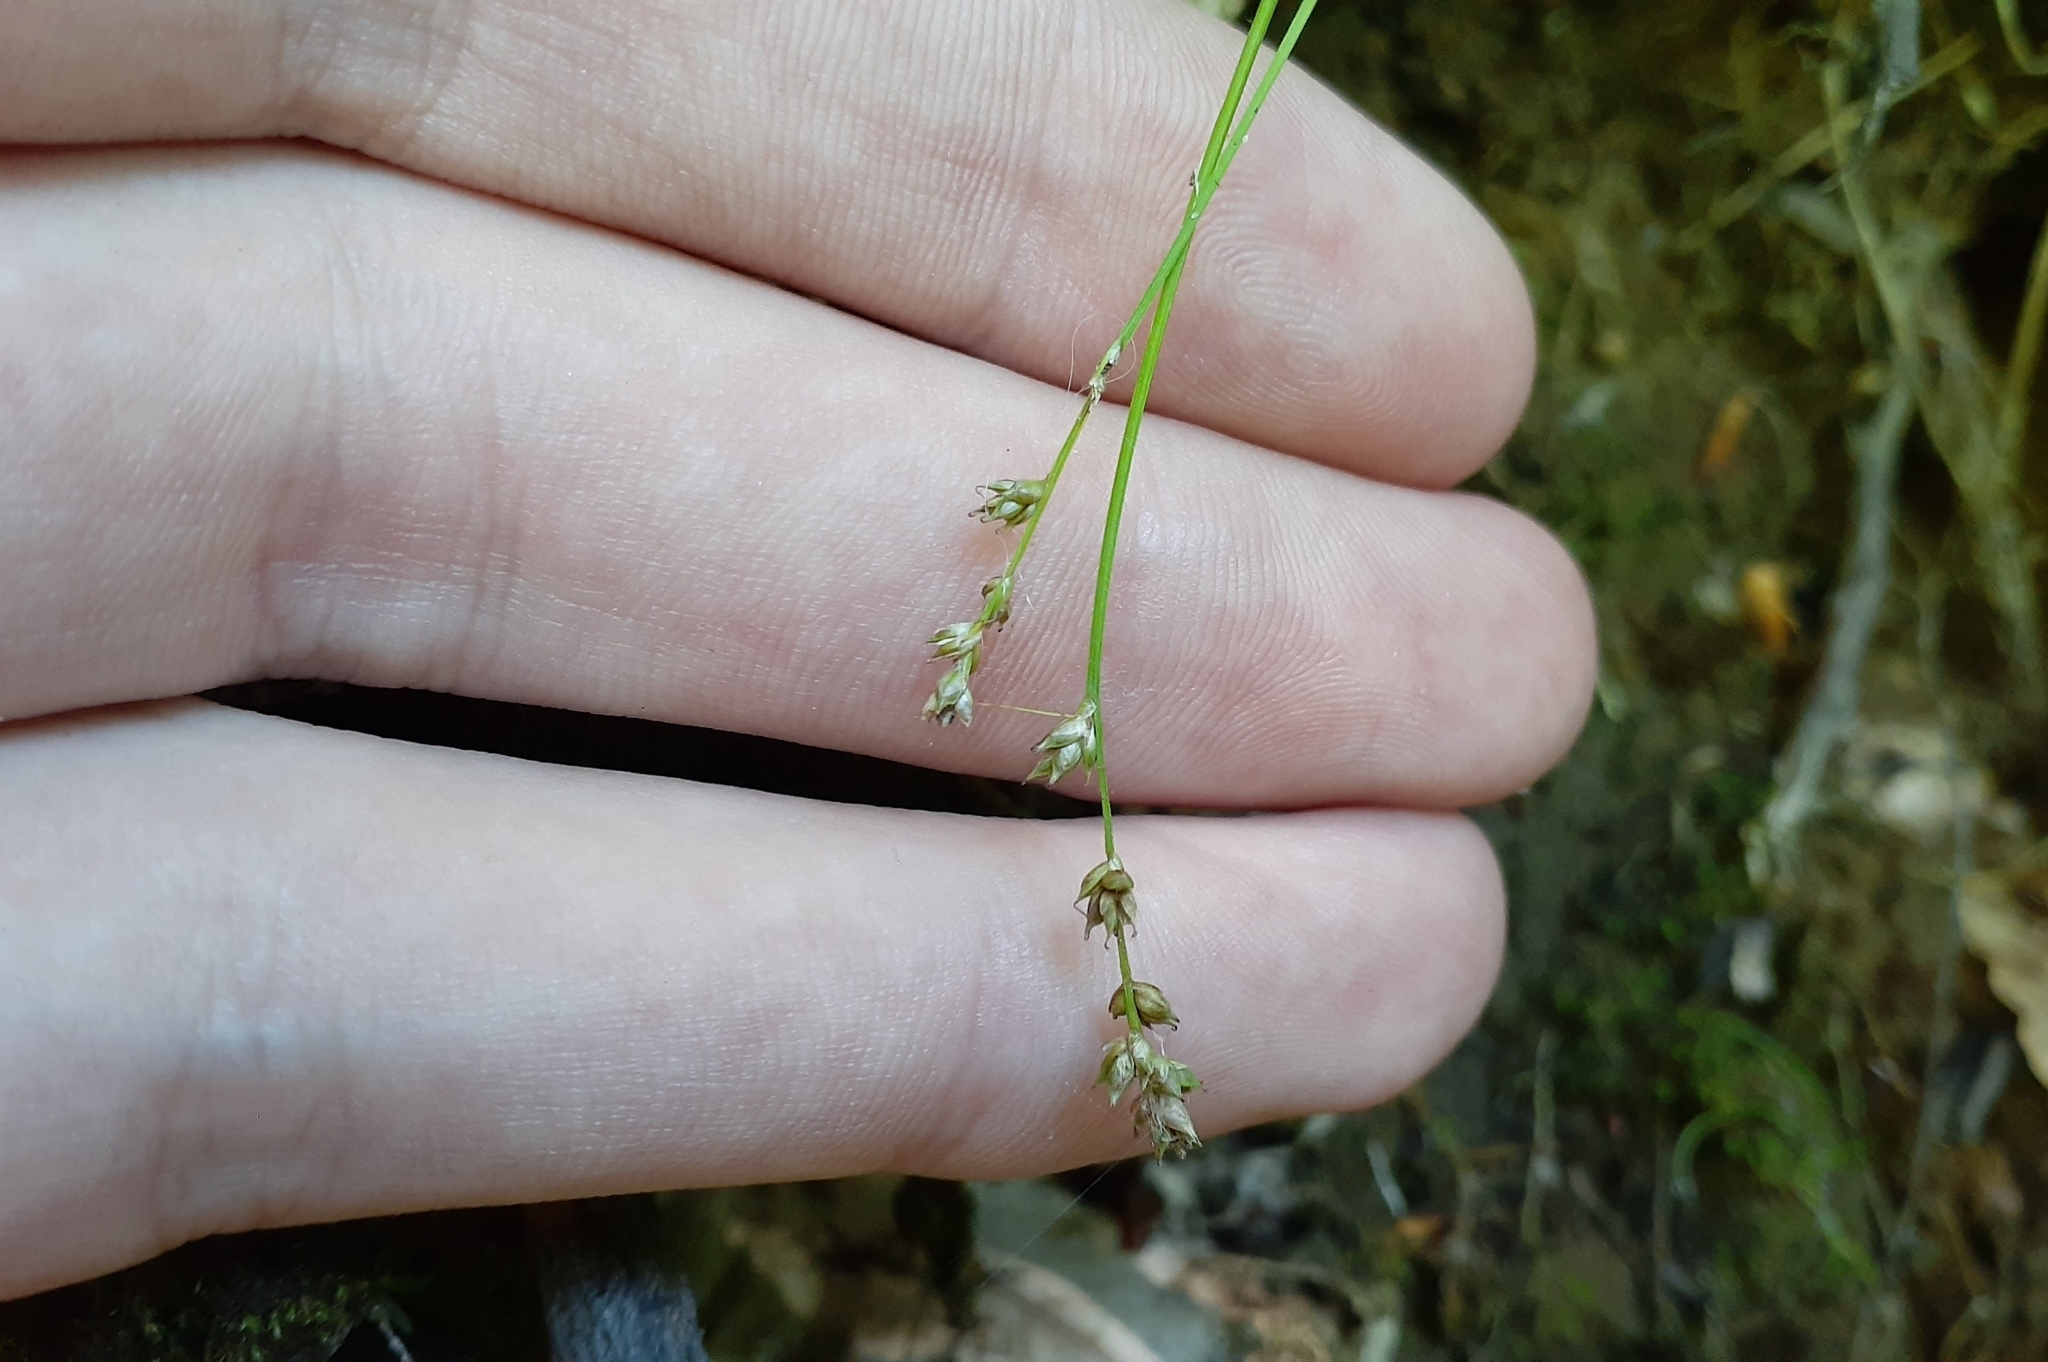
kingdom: Plantae
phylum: Tracheophyta
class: Liliopsida
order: Poales
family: Cyperaceae
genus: Carex
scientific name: Carex brunnescens
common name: Brown sedge
